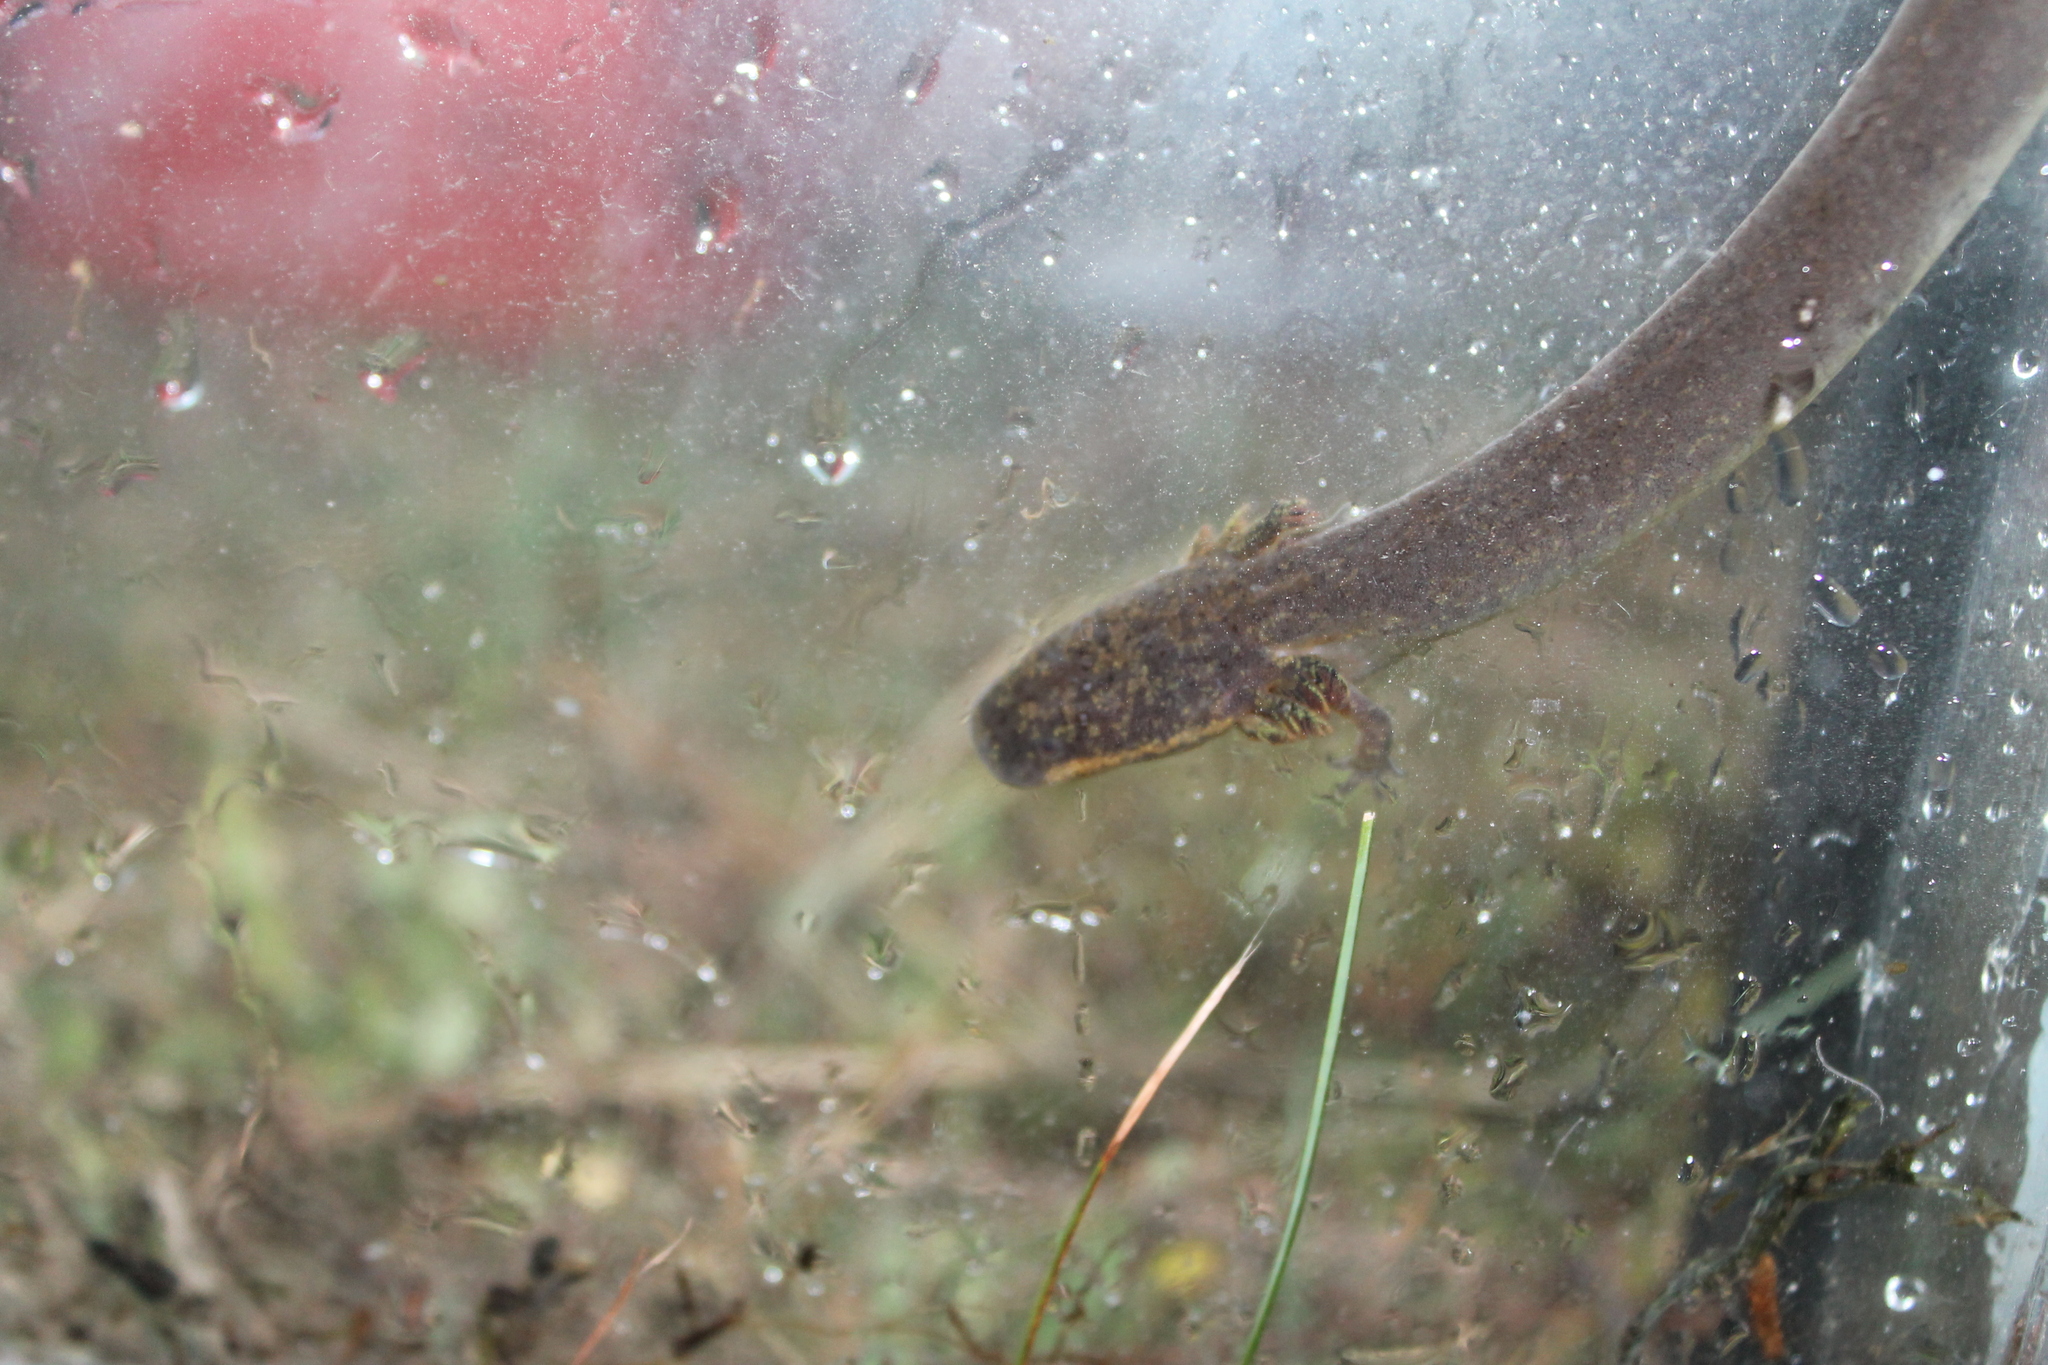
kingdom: Animalia
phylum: Chordata
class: Amphibia
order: Caudata
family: Sirenidae
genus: Siren
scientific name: Siren intermedia
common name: Lesser siren
